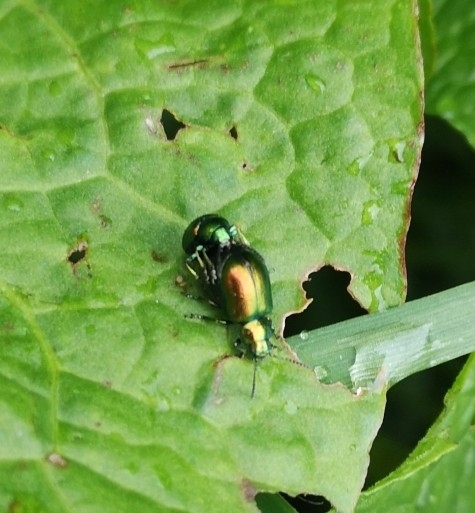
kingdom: Animalia
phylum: Arthropoda
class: Insecta
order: Coleoptera
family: Chrysomelidae
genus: Gastrophysa
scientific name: Gastrophysa viridula
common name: Green dock beetle
